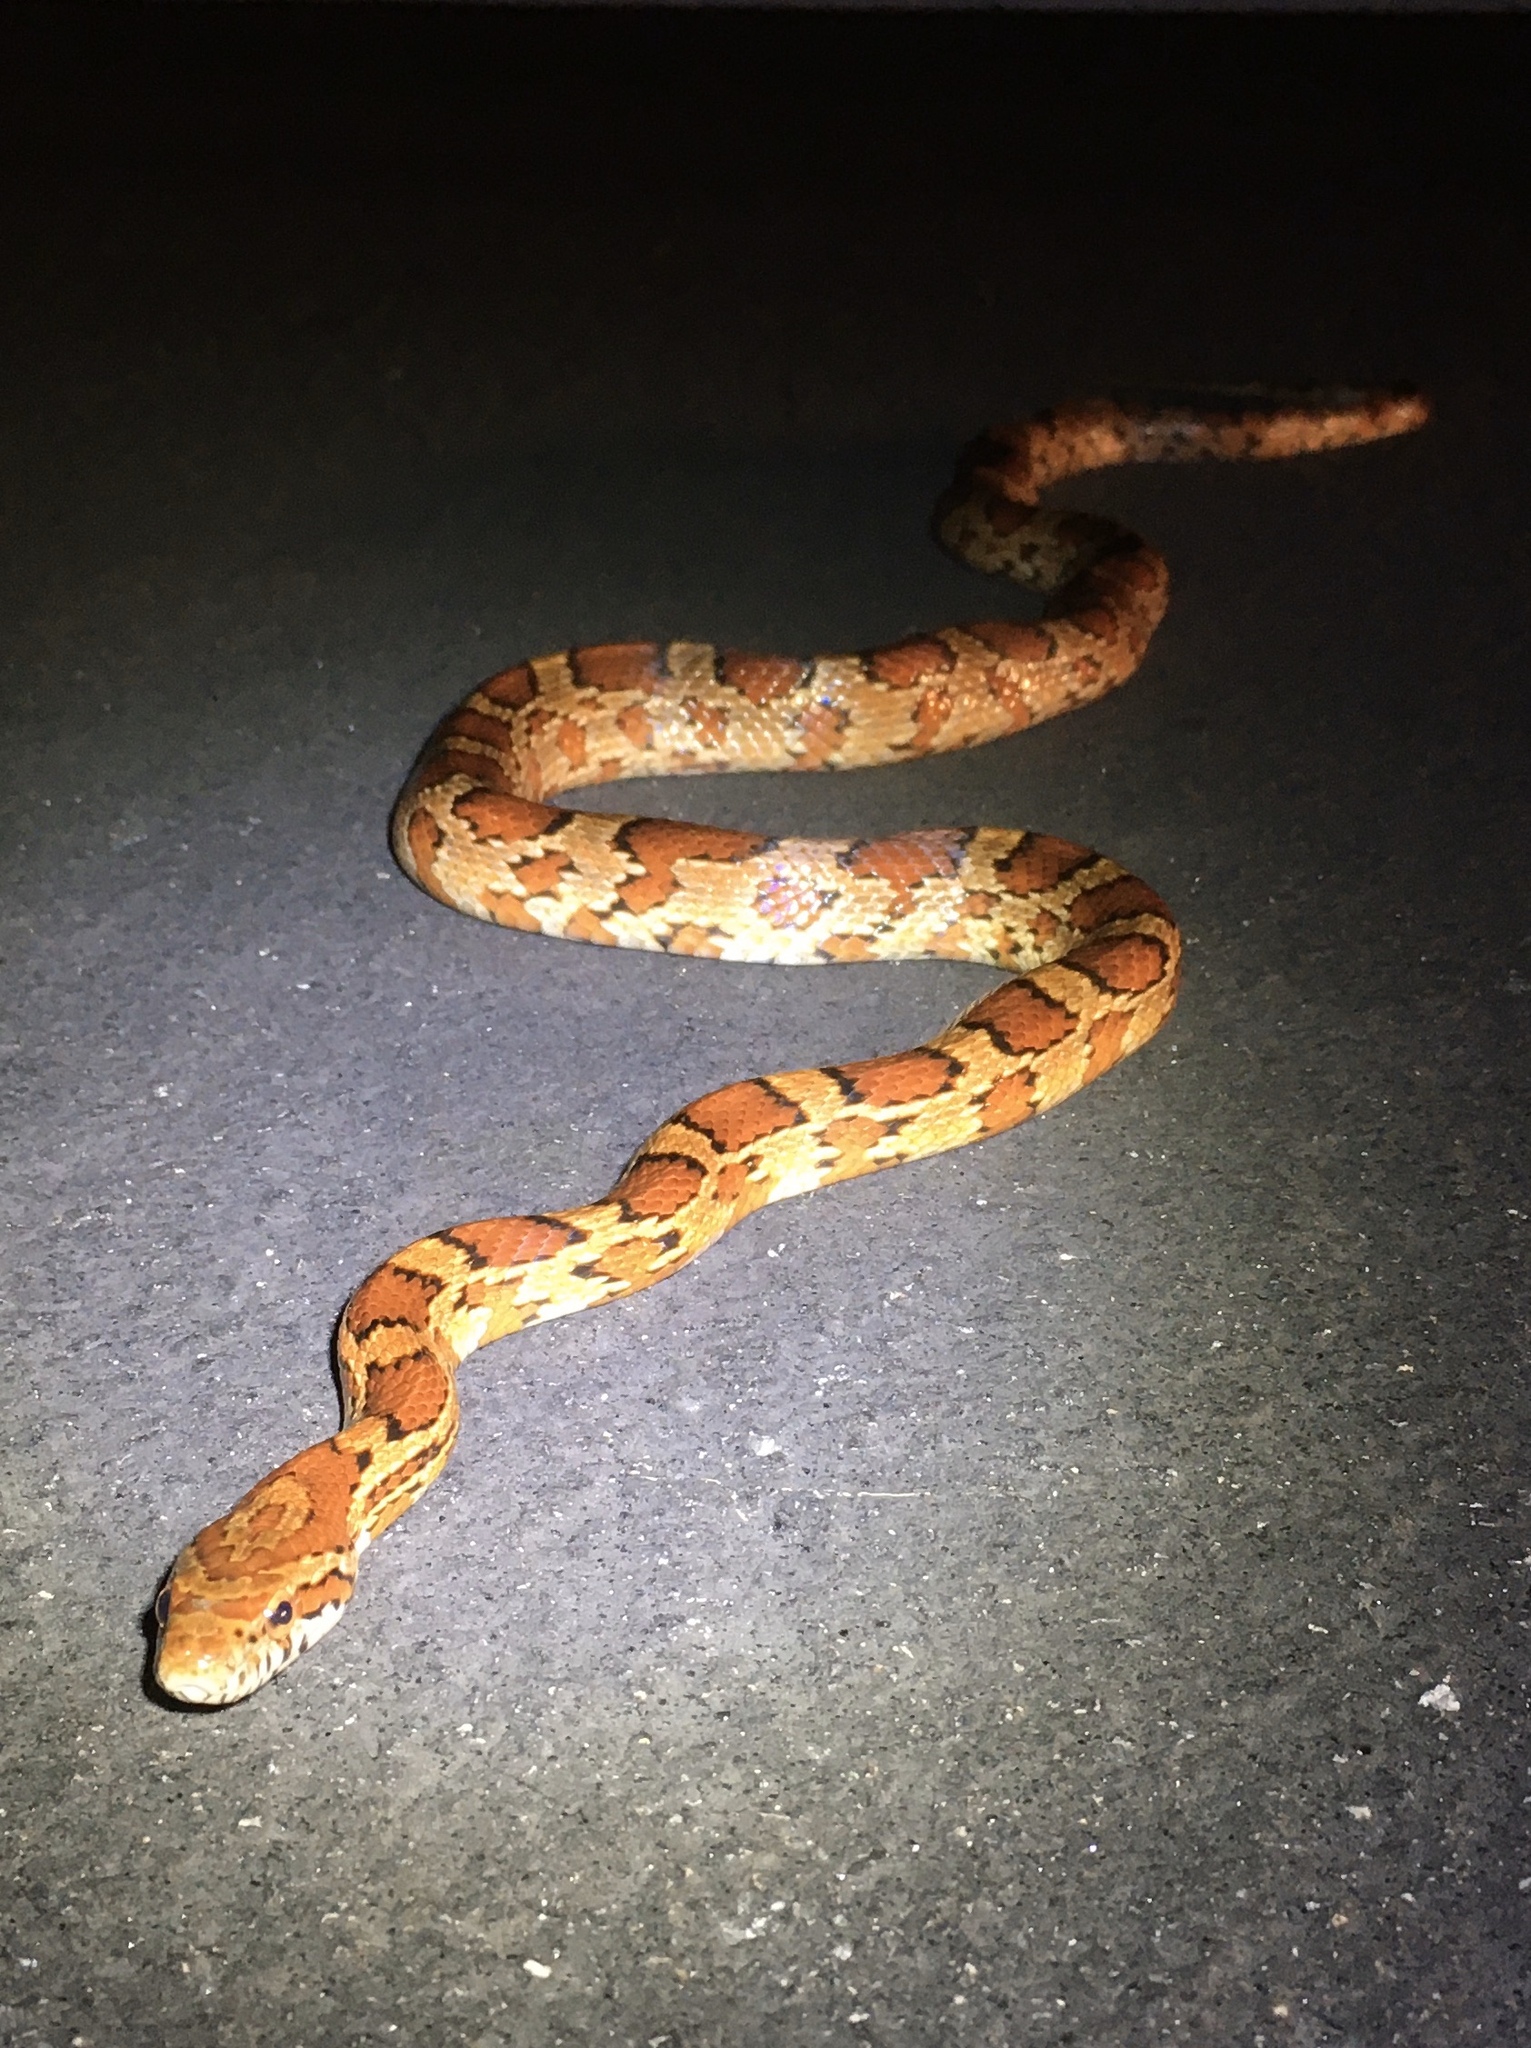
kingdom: Animalia
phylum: Chordata
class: Squamata
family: Colubridae
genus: Pantherophis
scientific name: Pantherophis guttatus
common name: Red cornsnake
